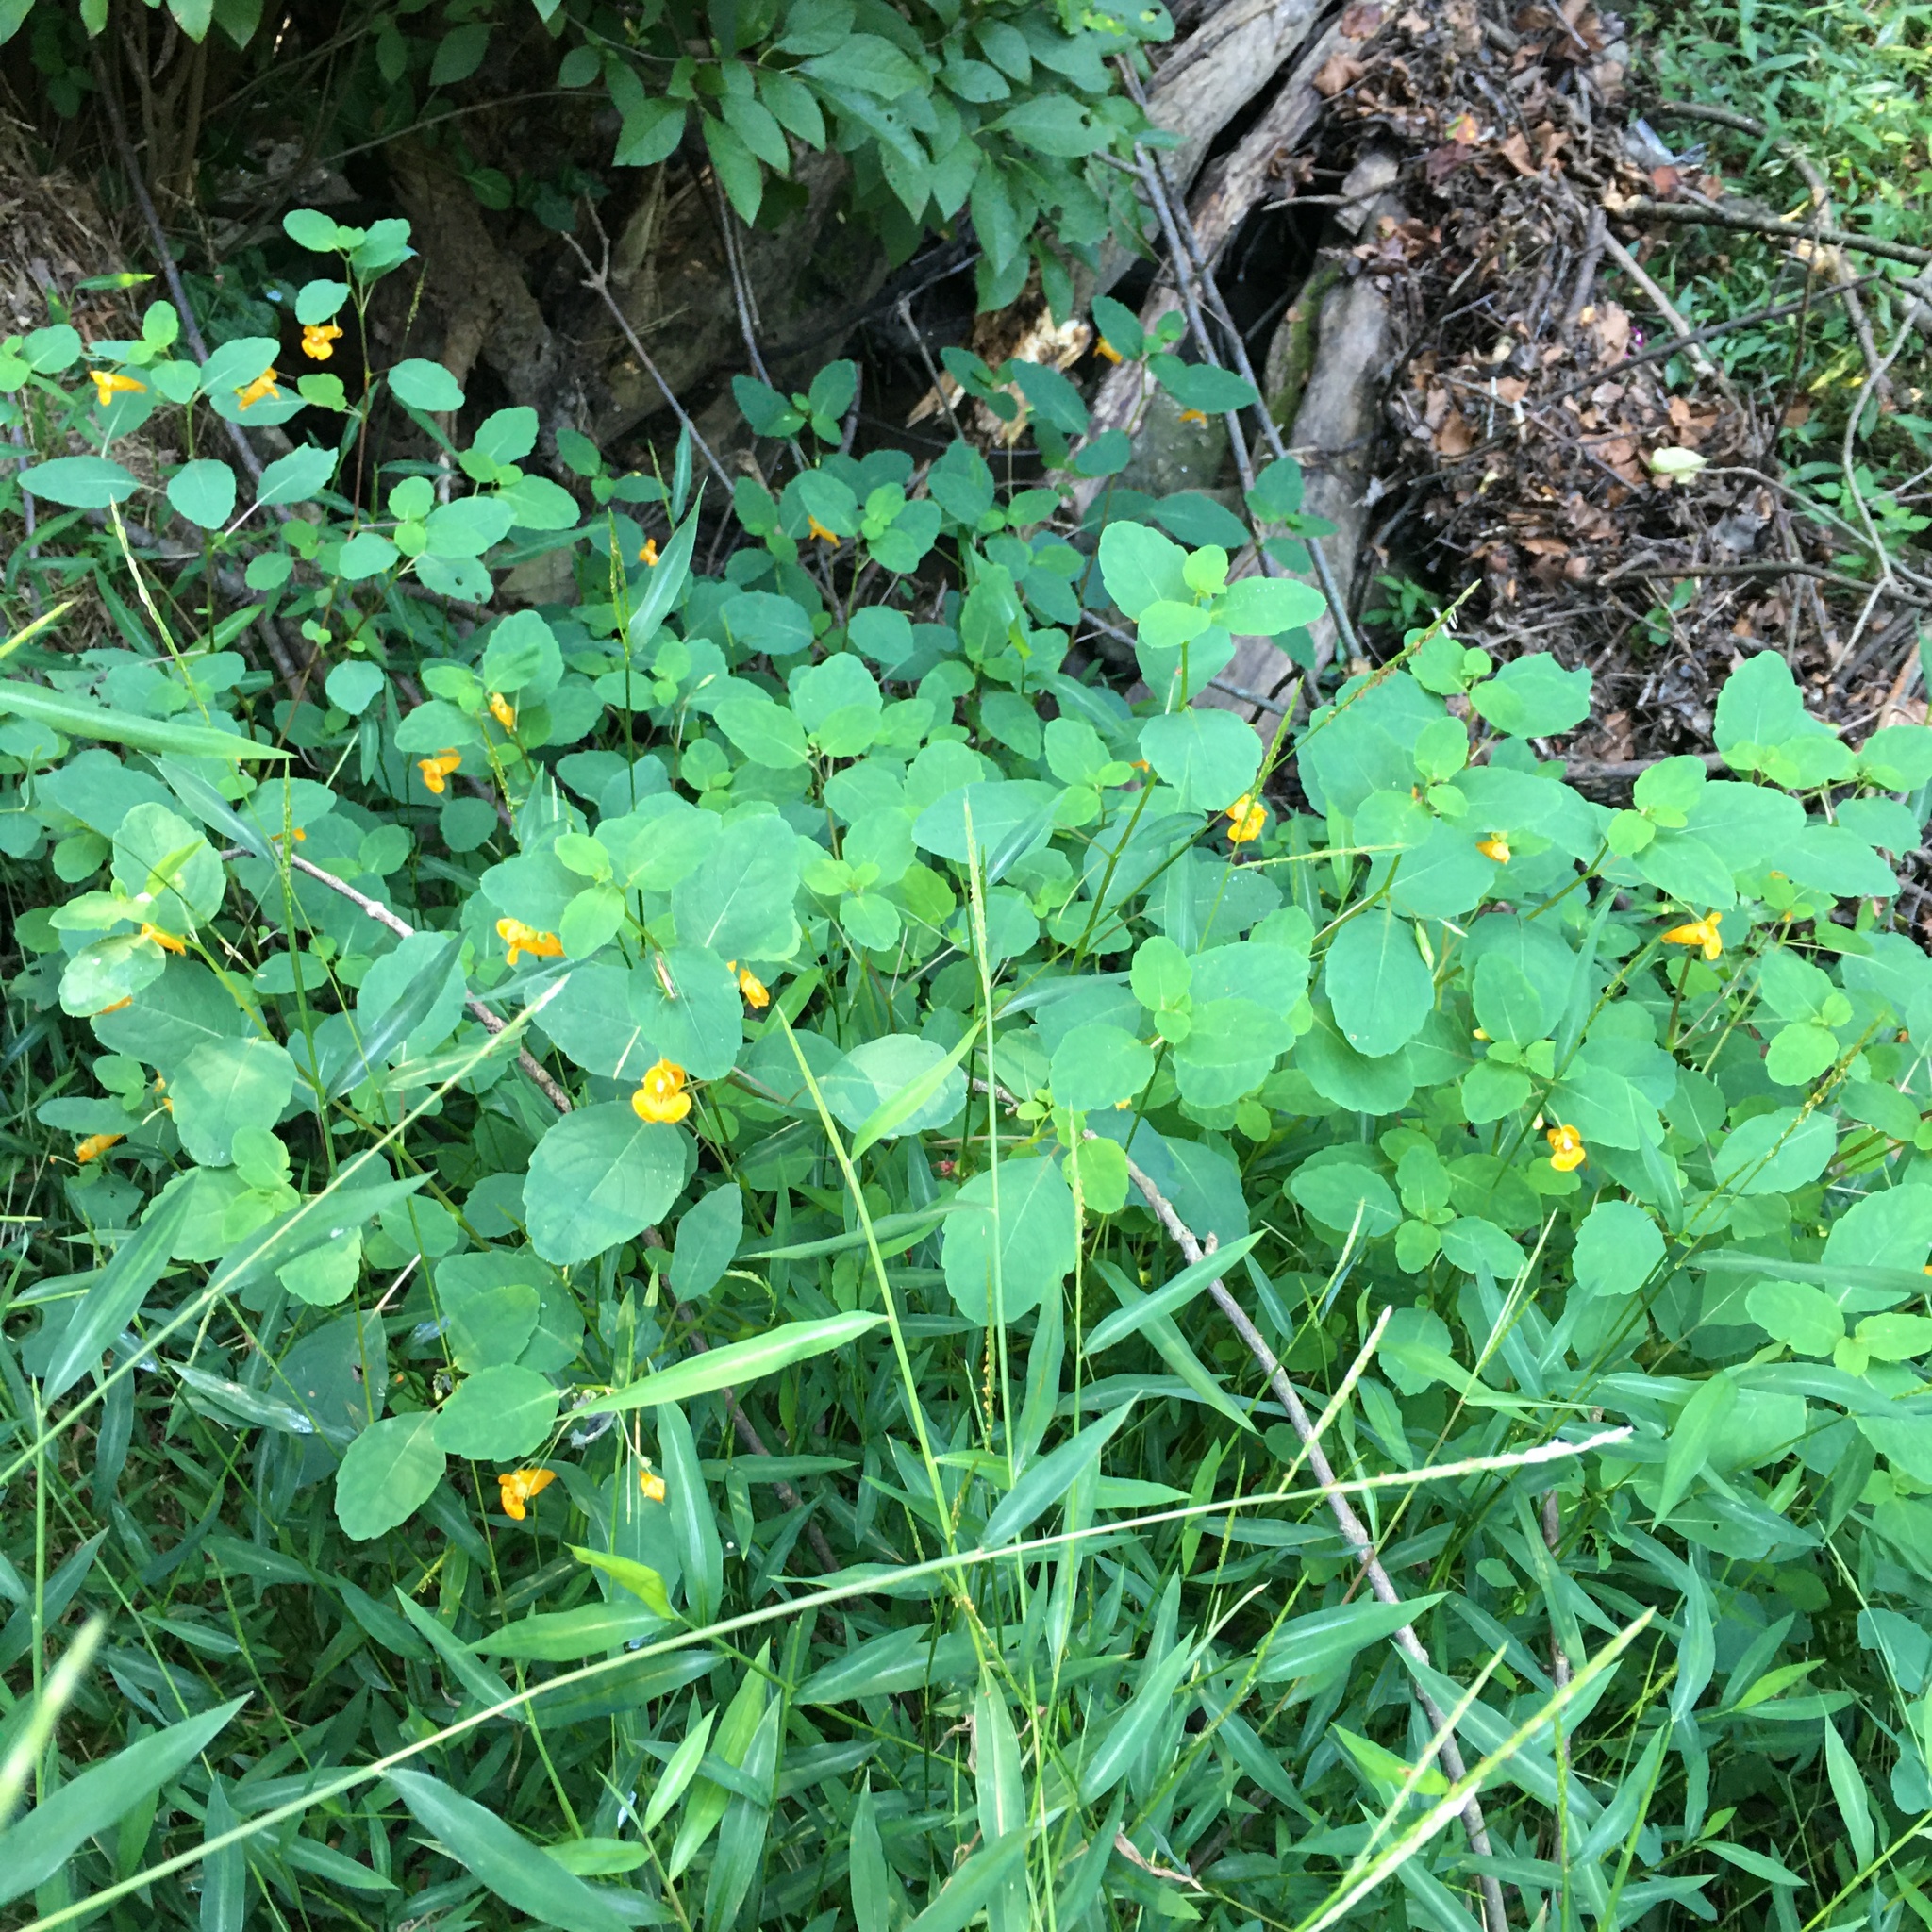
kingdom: Plantae
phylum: Tracheophyta
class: Magnoliopsida
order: Ericales
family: Balsaminaceae
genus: Impatiens
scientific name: Impatiens capensis
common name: Orange balsam
